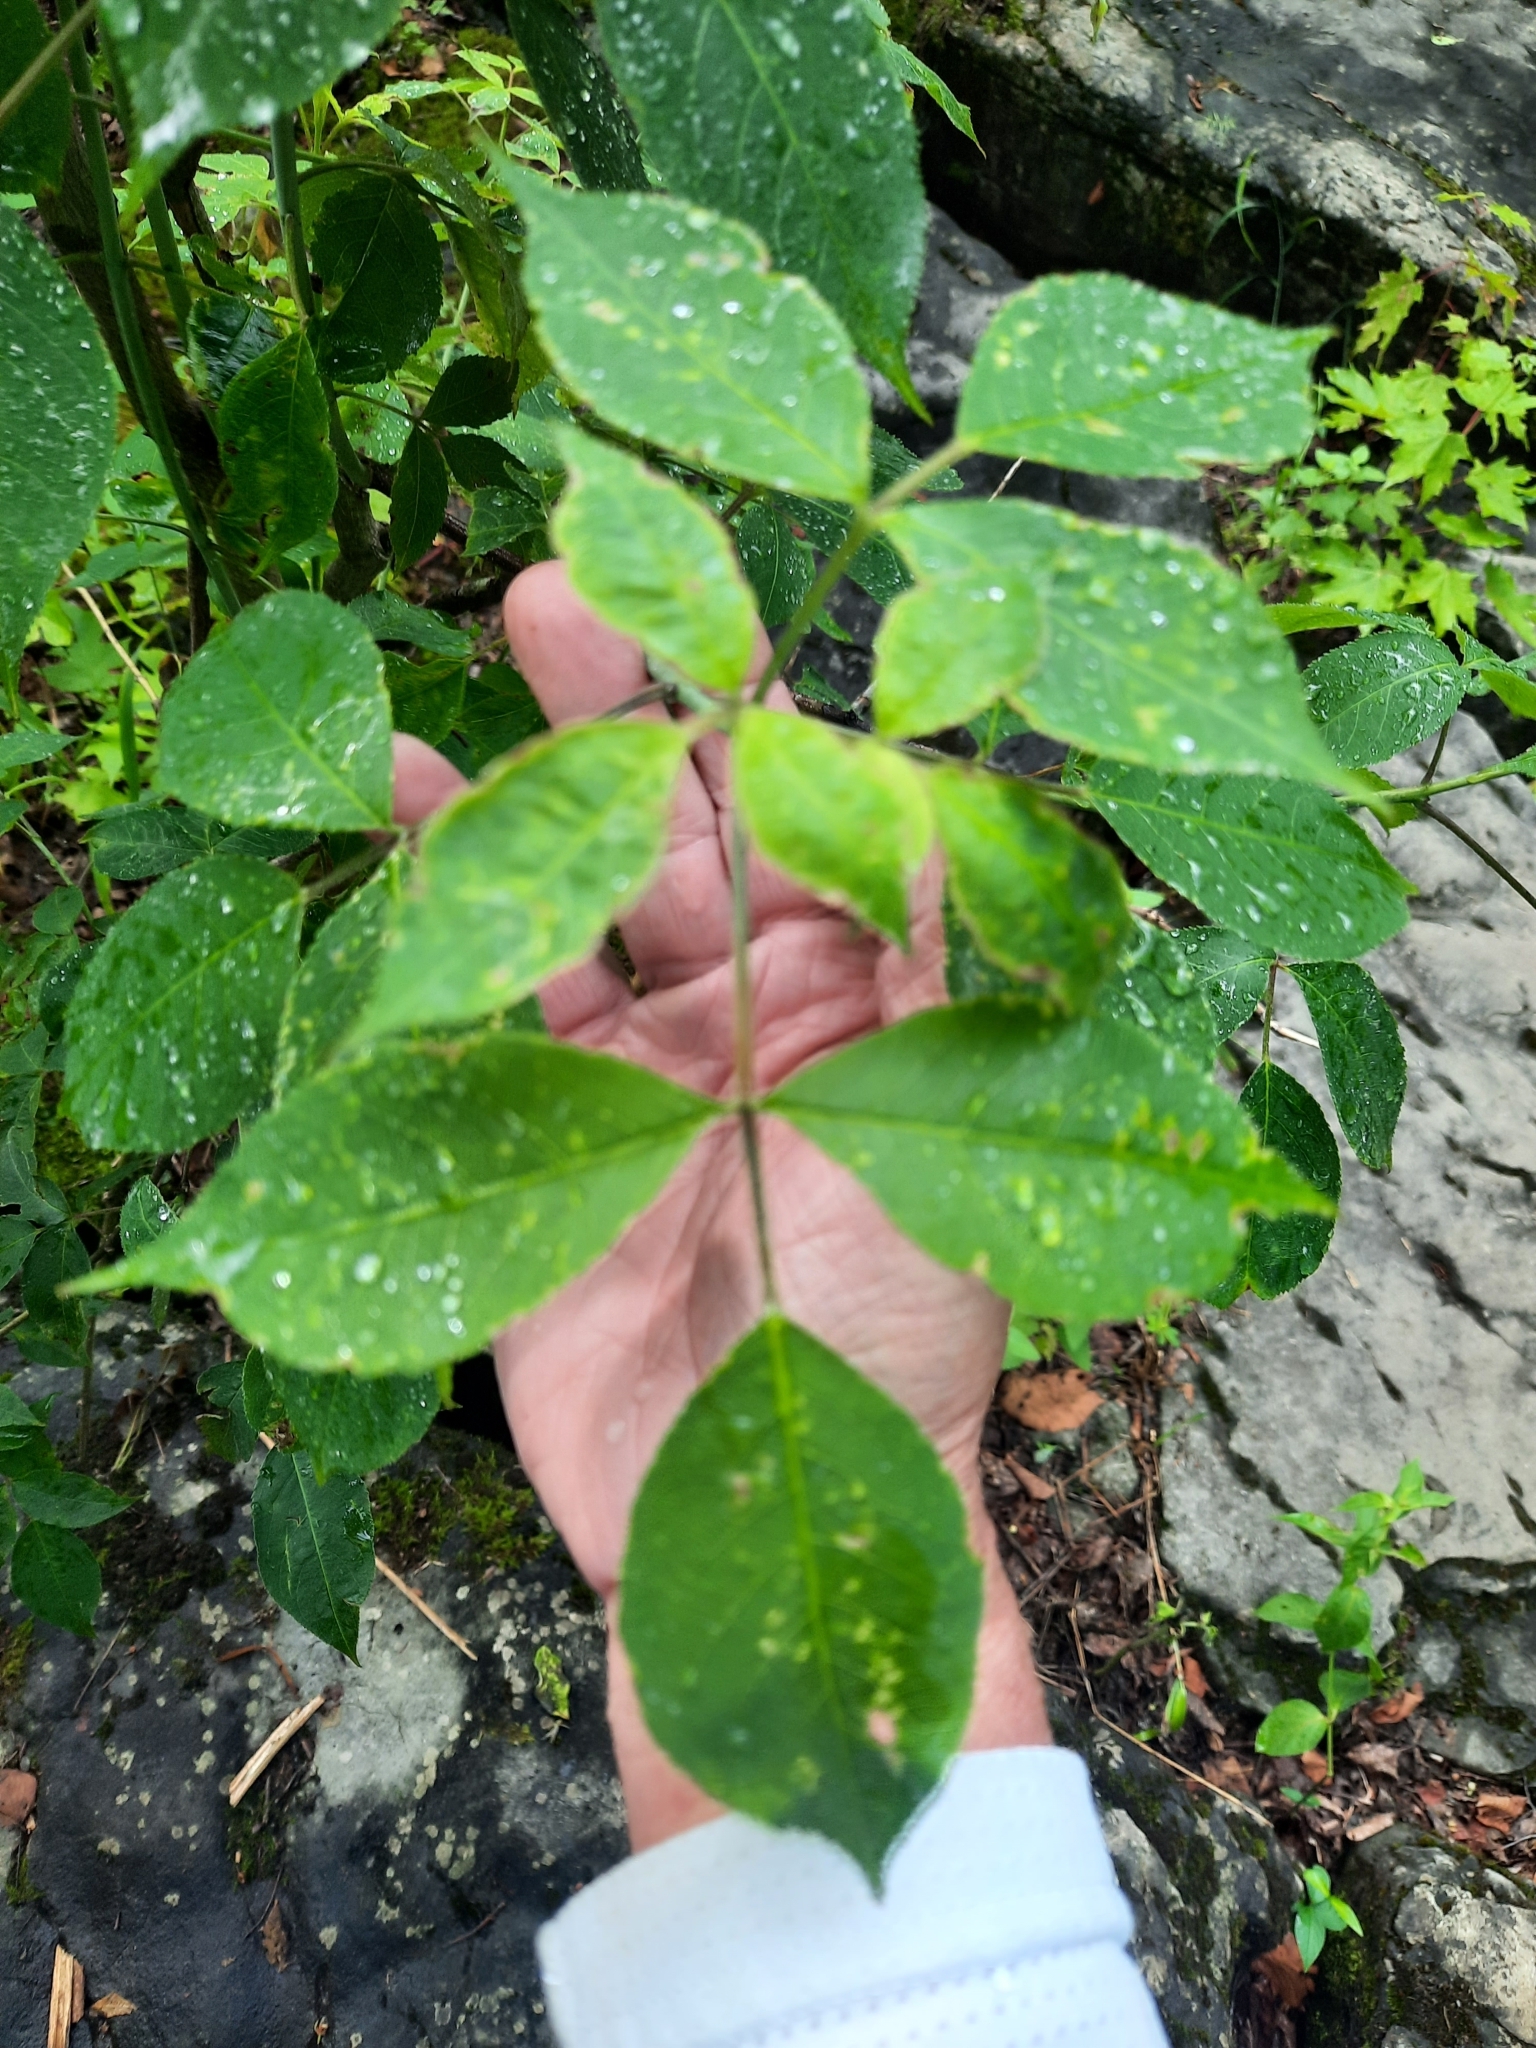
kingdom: Plantae
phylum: Tracheophyta
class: Magnoliopsida
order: Crossosomatales
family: Staphyleaceae
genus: Staphylea
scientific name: Staphylea trifolia
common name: American bladdernut
